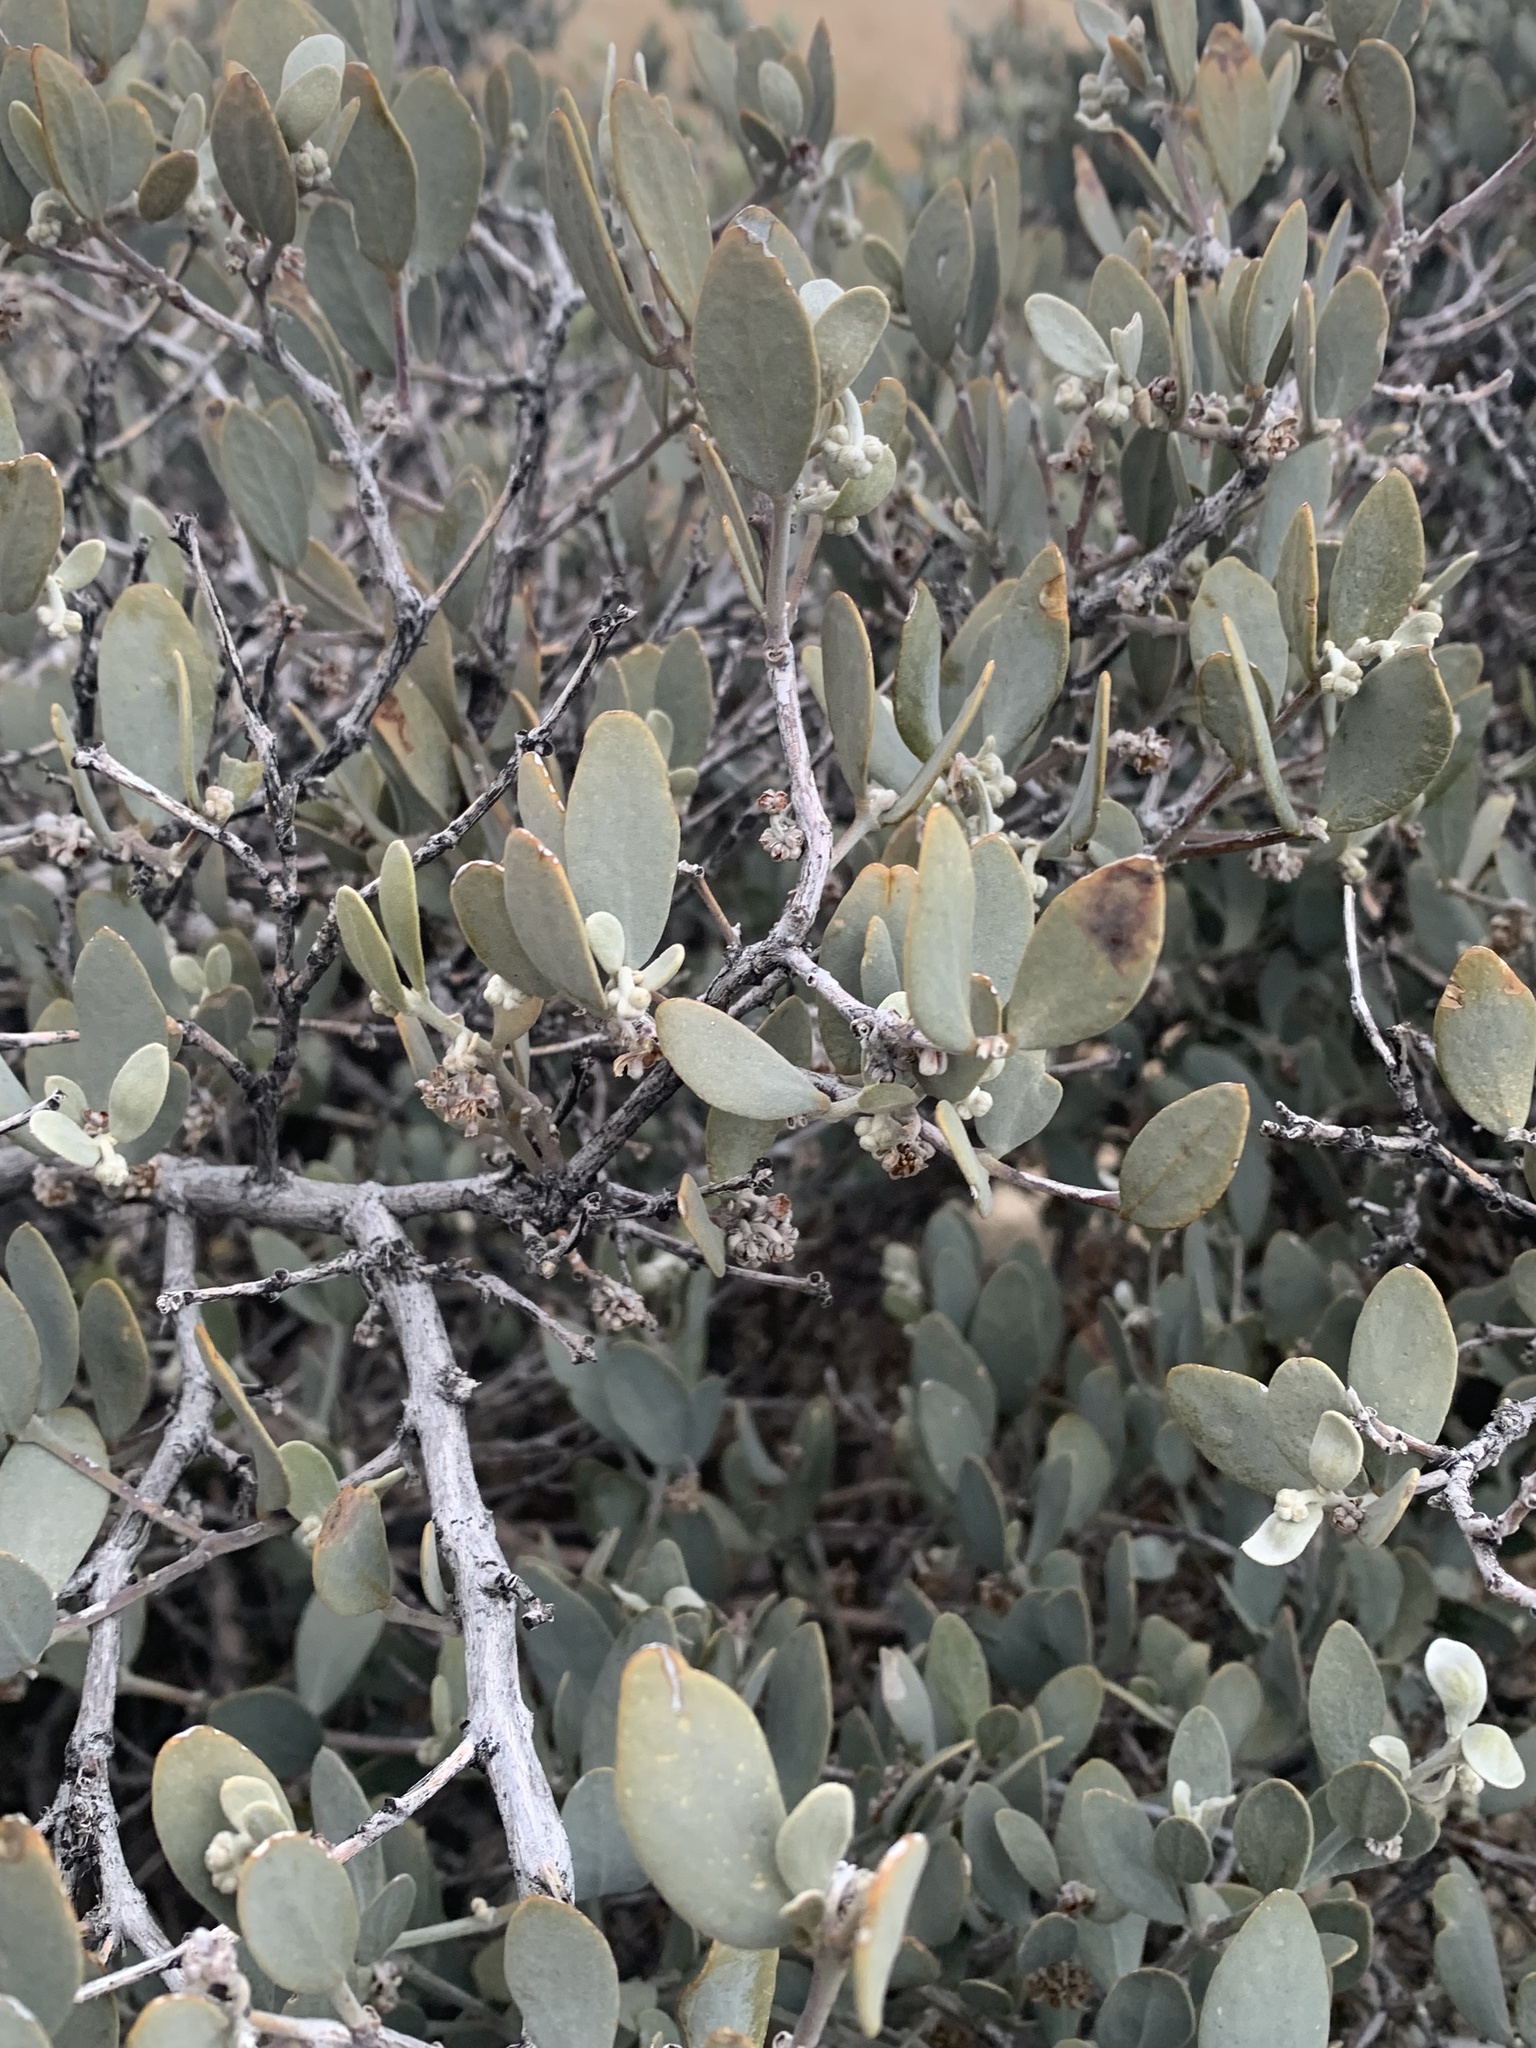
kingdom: Plantae
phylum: Tracheophyta
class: Magnoliopsida
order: Caryophyllales
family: Simmondsiaceae
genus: Simmondsia
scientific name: Simmondsia chinensis
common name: Jojoba
